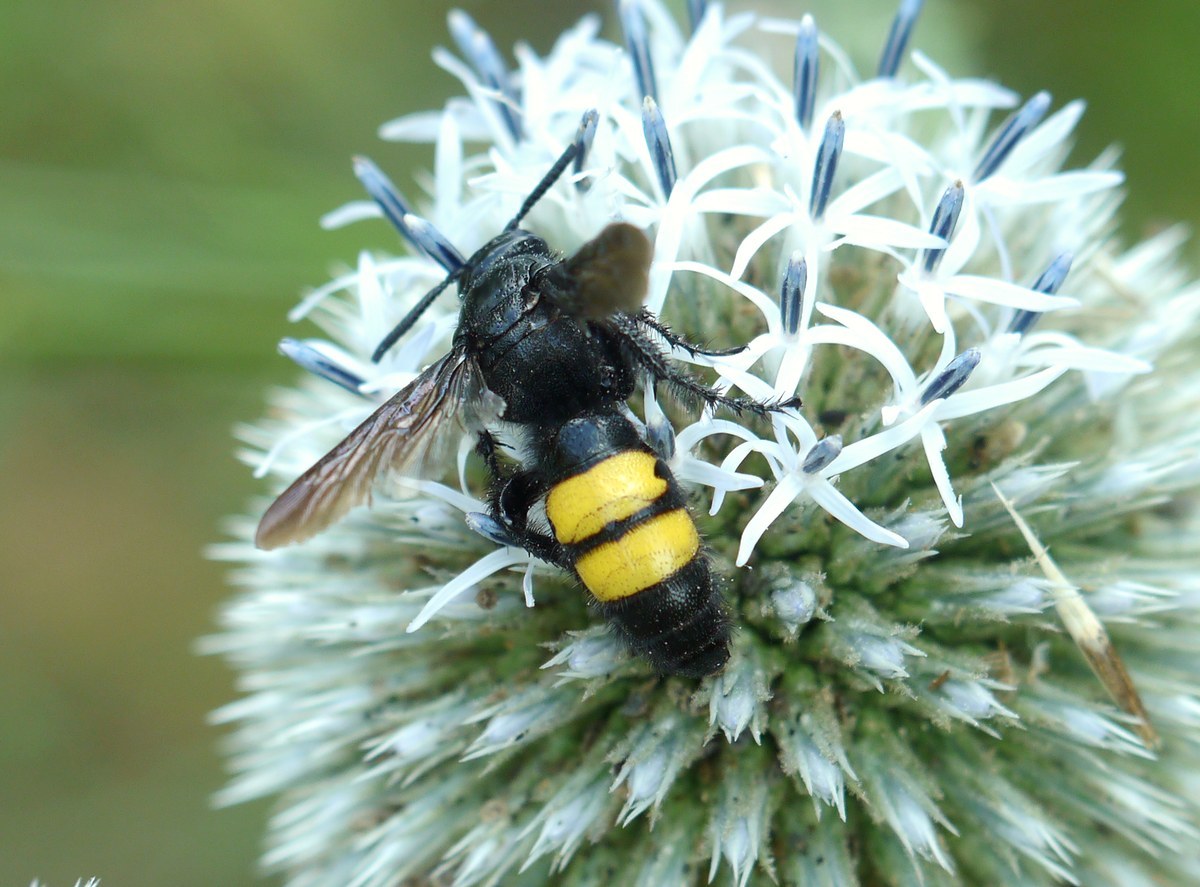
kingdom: Animalia
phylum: Arthropoda
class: Insecta
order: Hymenoptera
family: Scoliidae
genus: Scolia
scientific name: Scolia hirta
